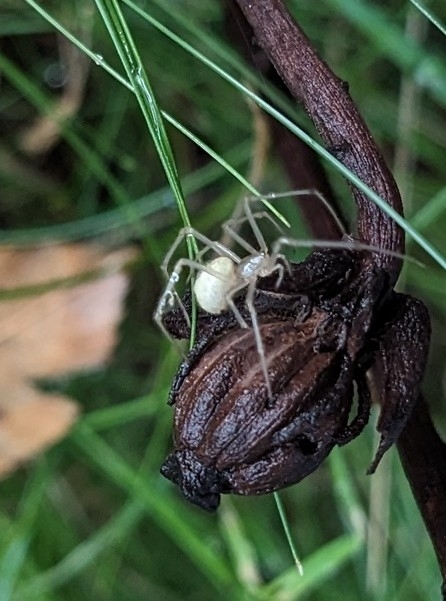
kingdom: Animalia
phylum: Arthropoda
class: Arachnida
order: Araneae
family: Theridiidae
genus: Enoplognatha
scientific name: Enoplognatha ovata
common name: Common candy-striped spider
